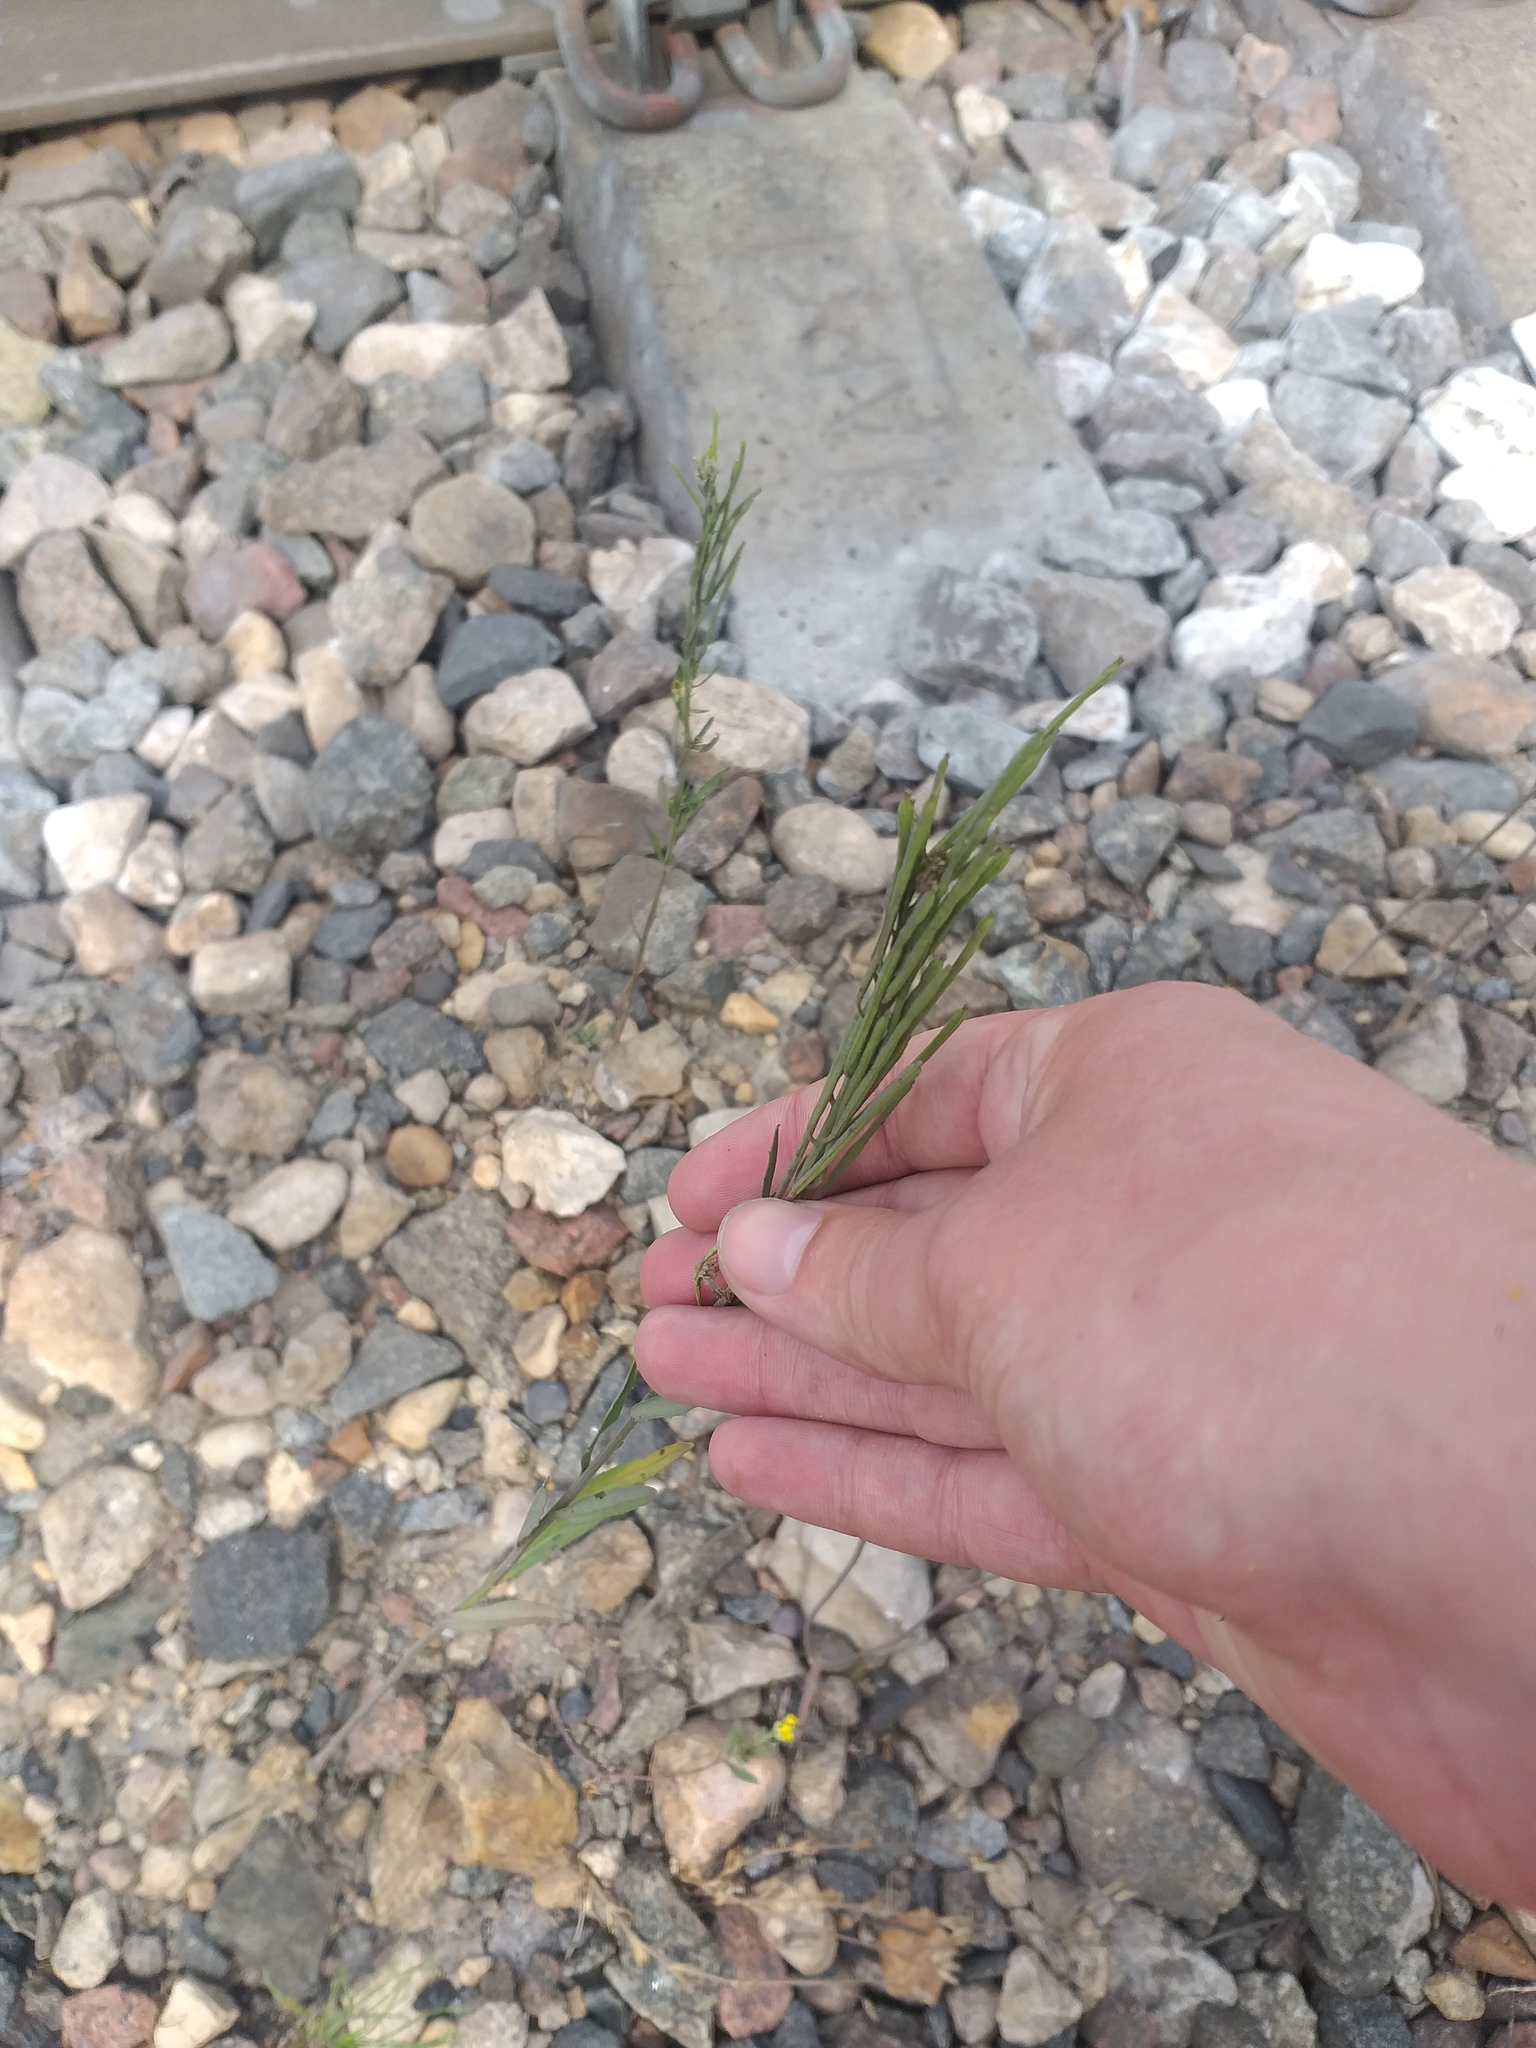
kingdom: Plantae
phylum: Tracheophyta
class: Magnoliopsida
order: Brassicales
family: Brassicaceae
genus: Erysimum
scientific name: Erysimum hieraciifolium
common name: European wallflower
